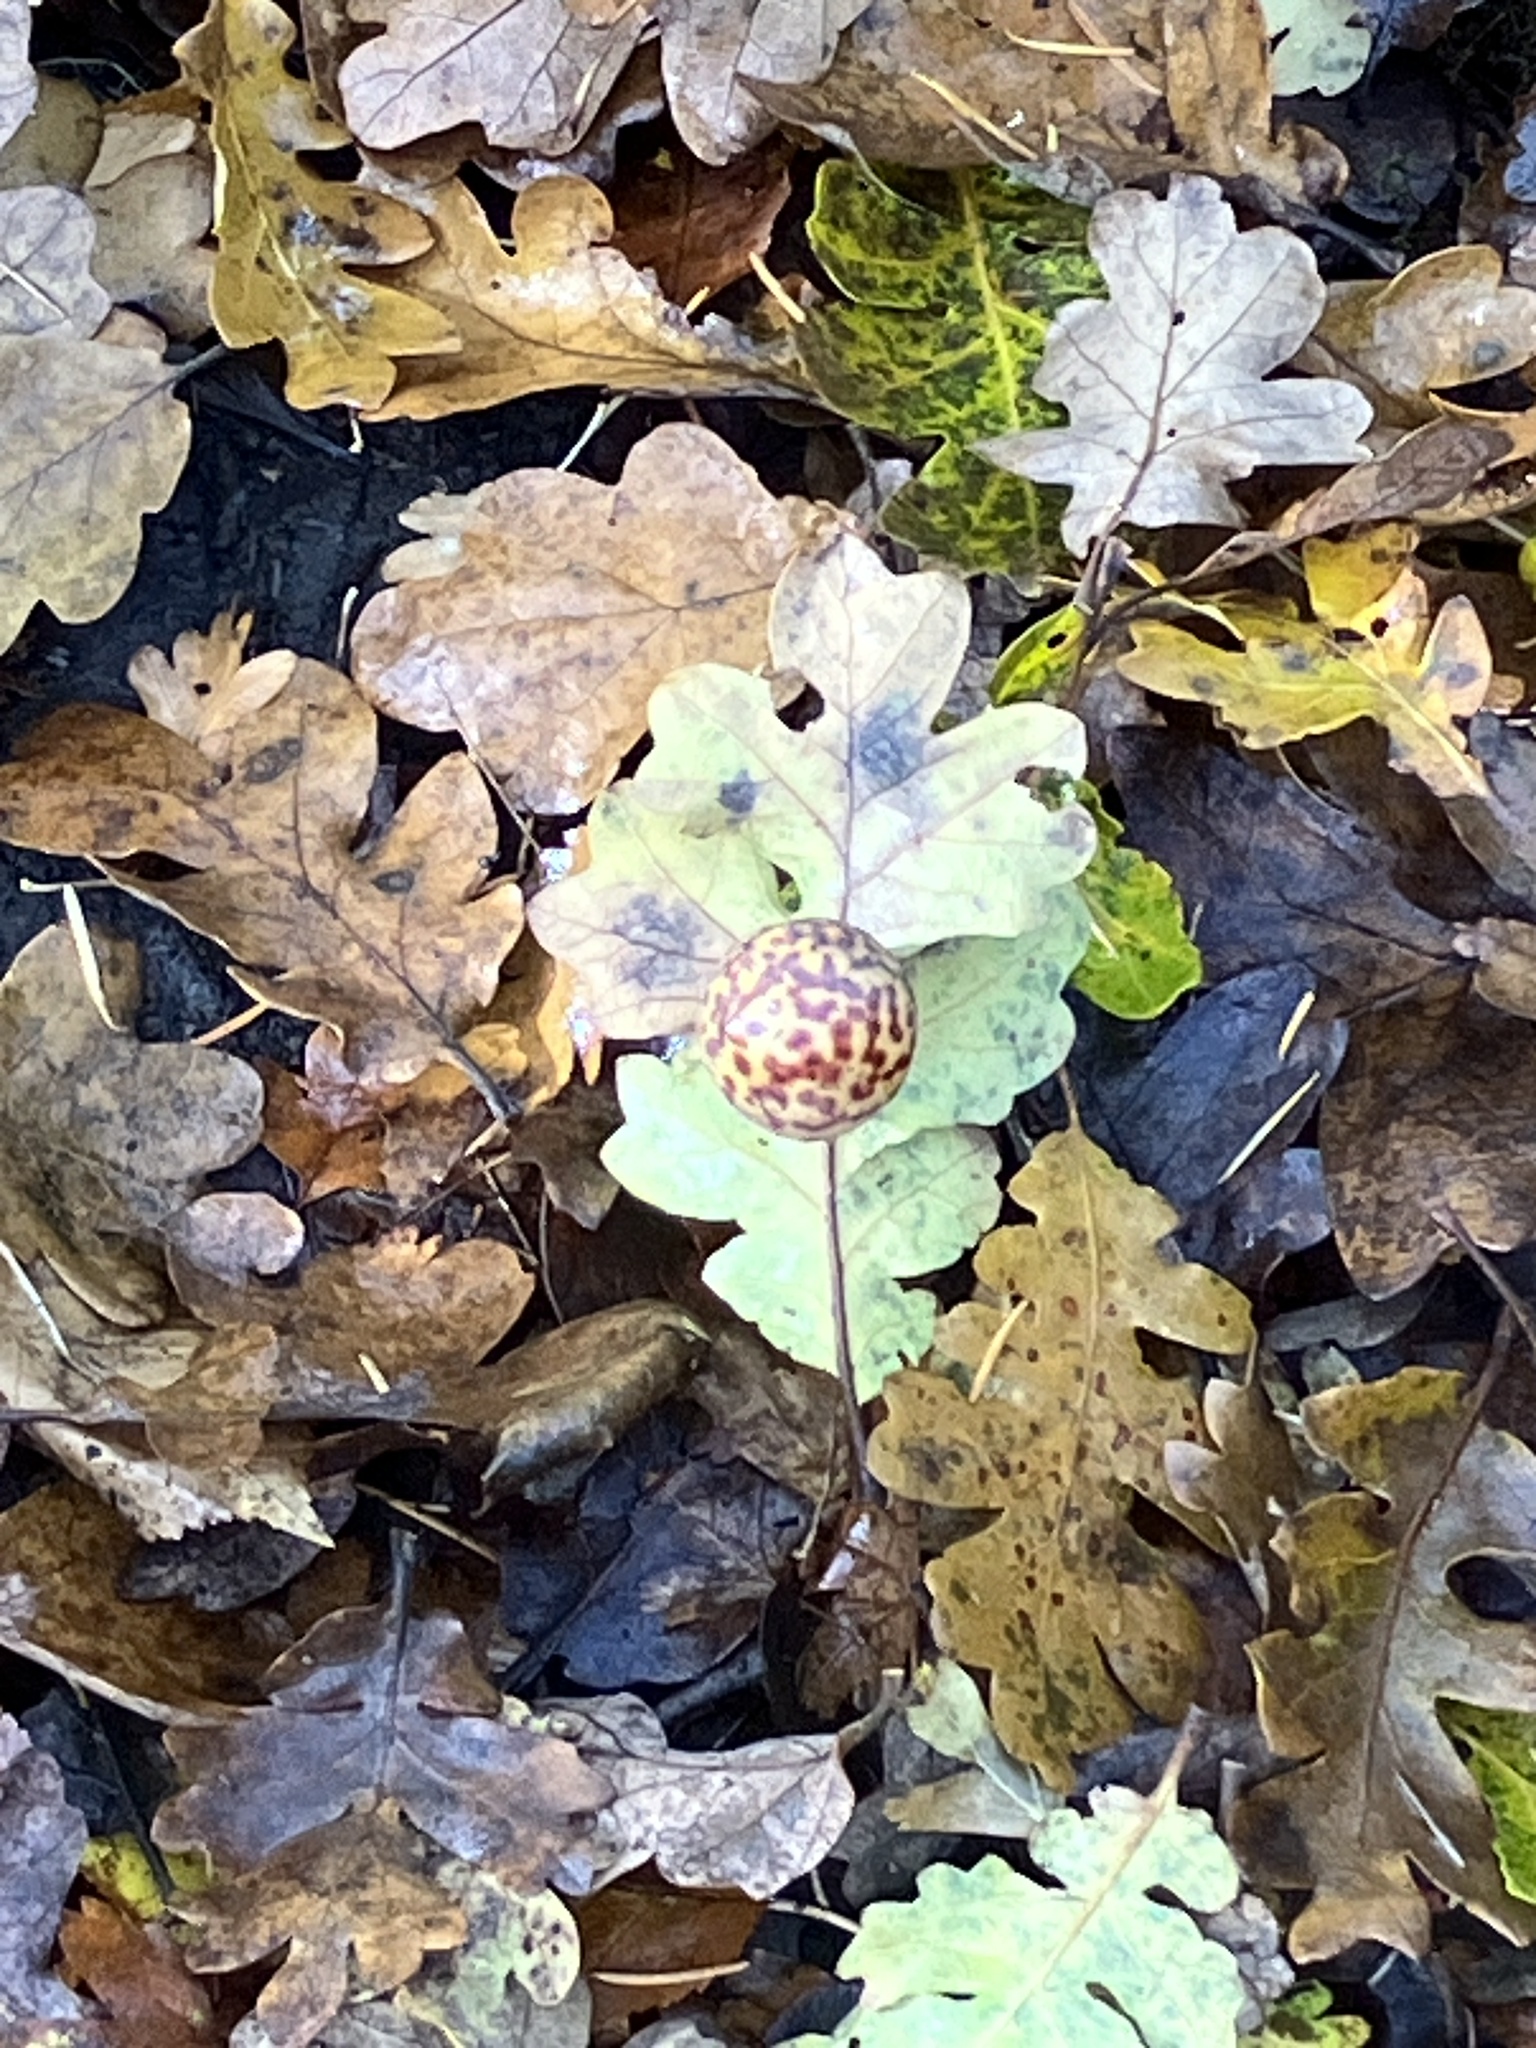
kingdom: Animalia
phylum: Arthropoda
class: Insecta
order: Hymenoptera
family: Cynipidae
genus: Cynips
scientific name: Cynips
